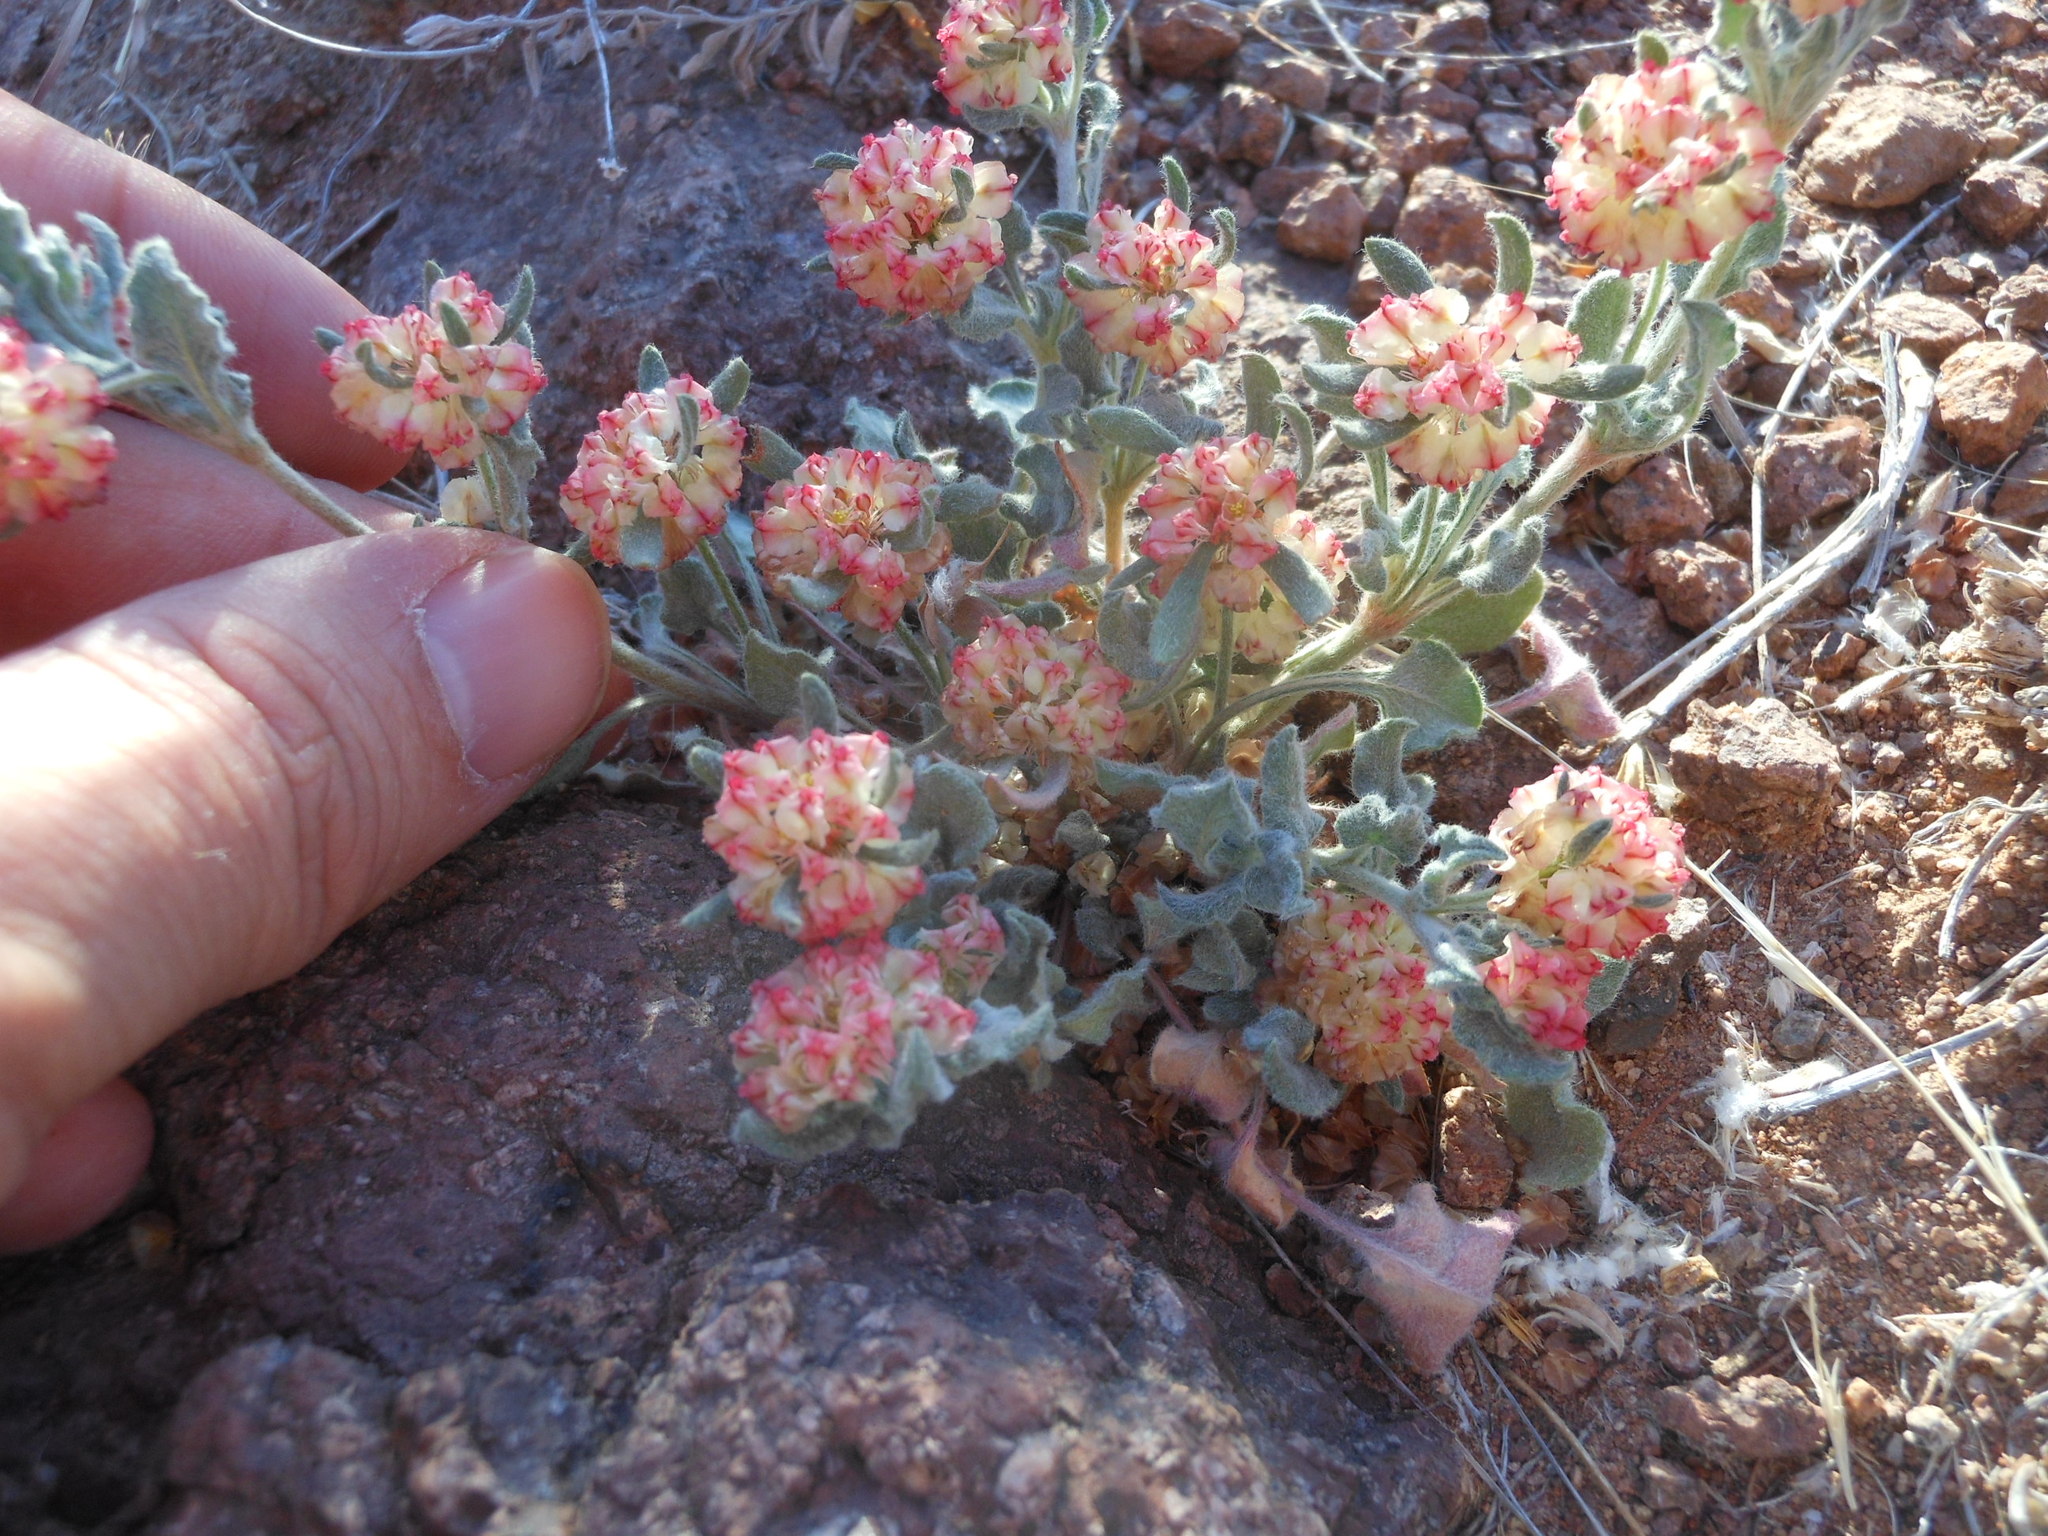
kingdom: Plantae
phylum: Tracheophyta
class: Magnoliopsida
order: Caryophyllales
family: Polygonaceae
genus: Eriogonum
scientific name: Eriogonum abertianum
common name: Abert's wild buckwheat
